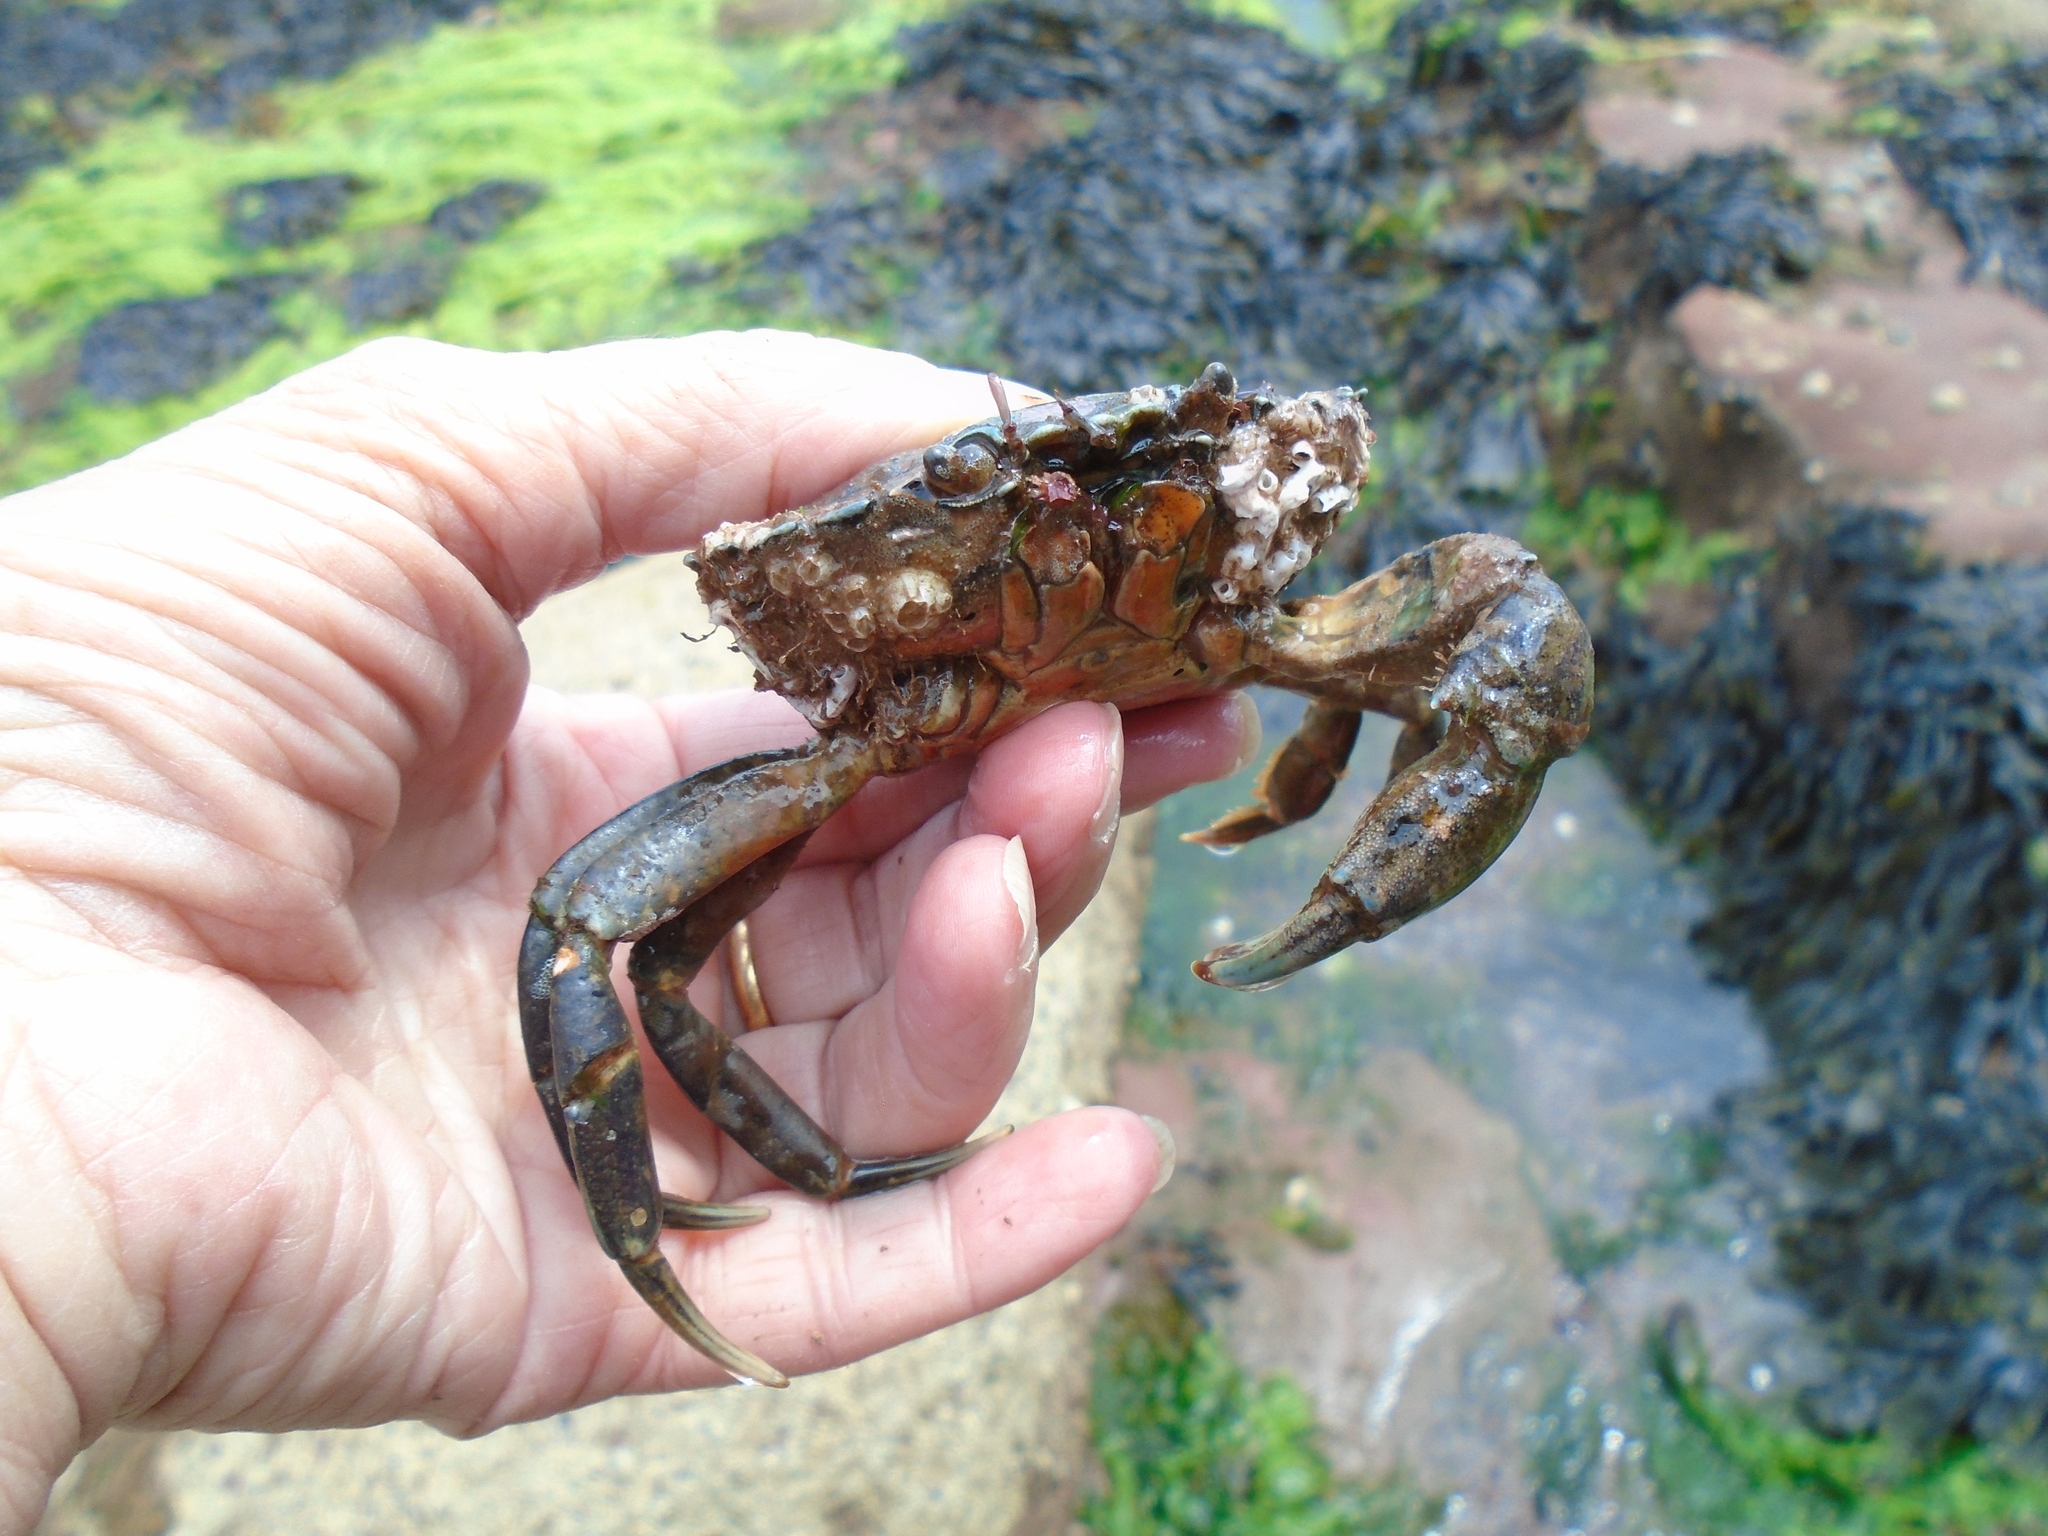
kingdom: Animalia
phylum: Arthropoda
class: Malacostraca
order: Decapoda
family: Carcinidae
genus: Carcinus
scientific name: Carcinus maenas
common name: European green crab
